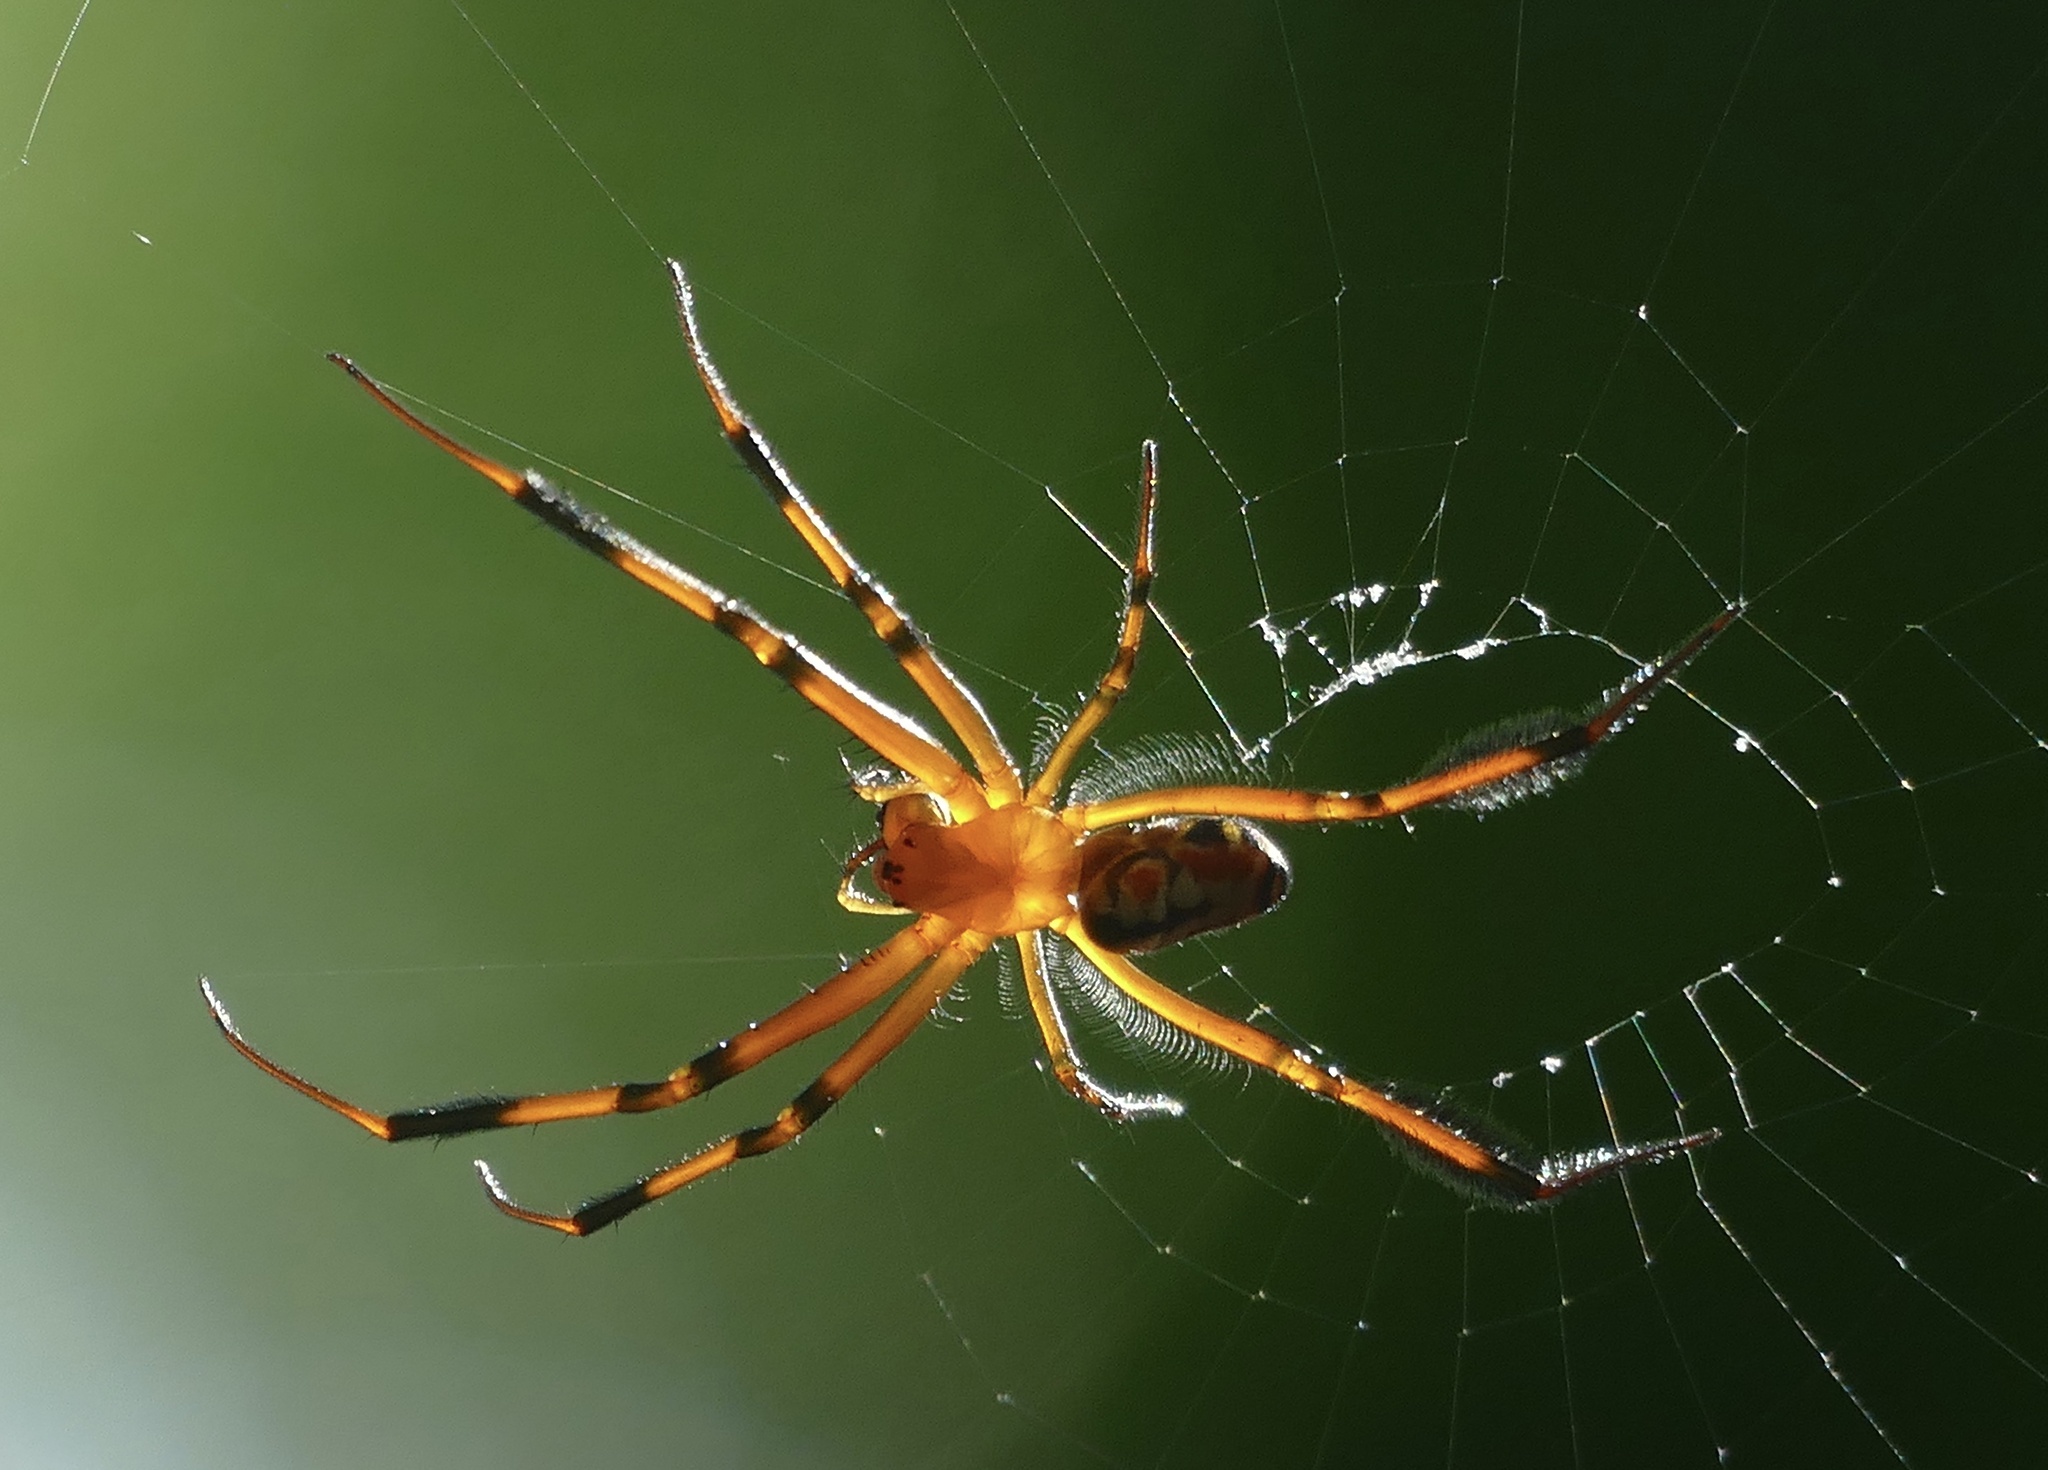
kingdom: Animalia
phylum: Arthropoda
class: Arachnida
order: Araneae
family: Tetragnathidae
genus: Leucauge
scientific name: Leucauge grata
